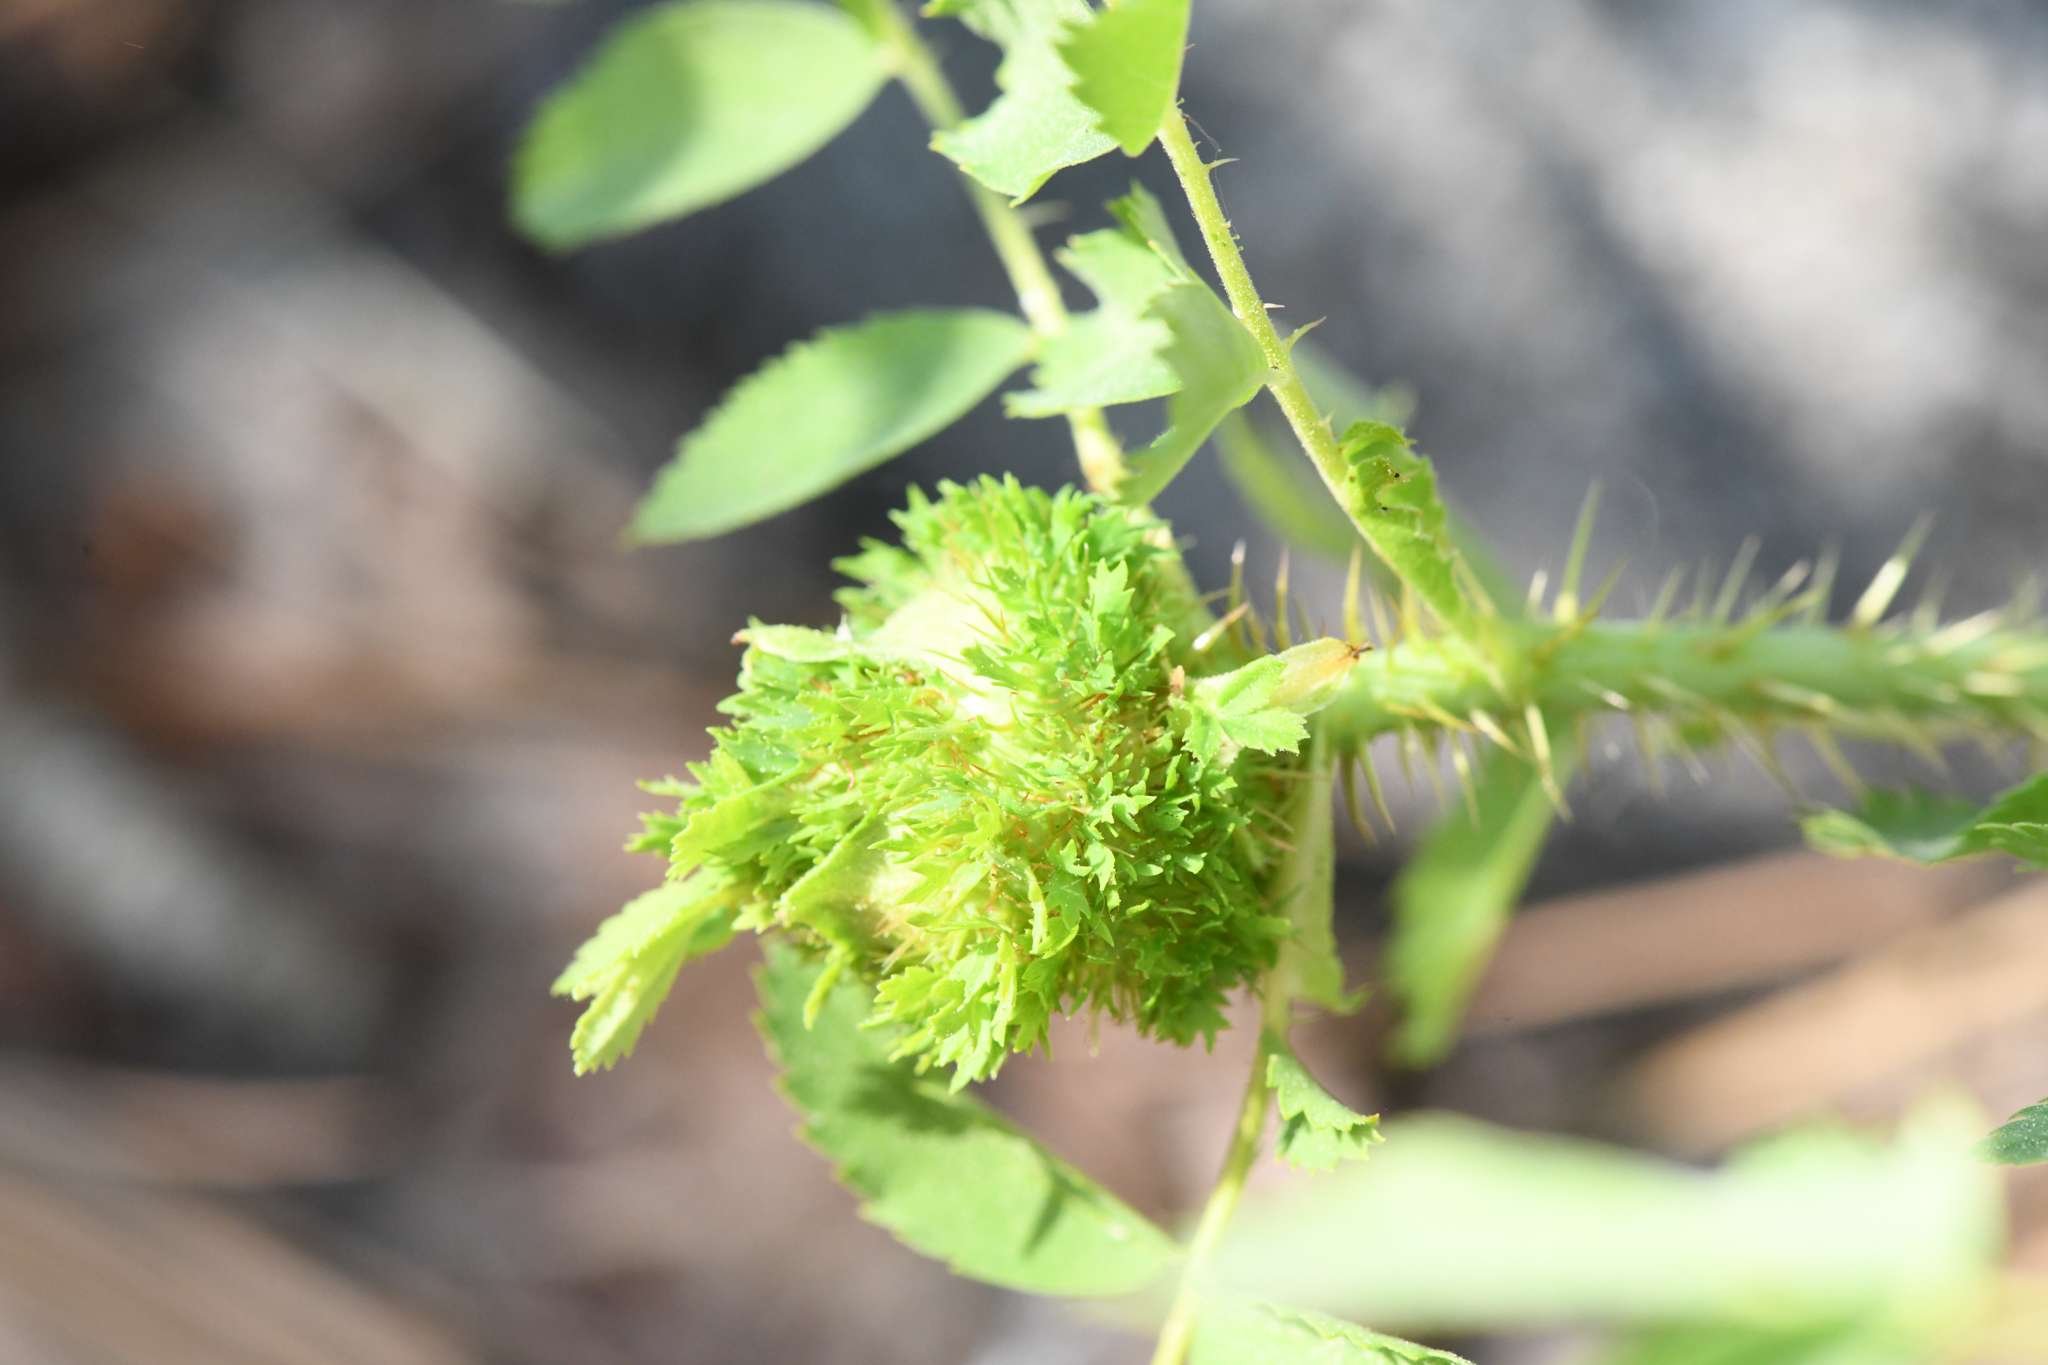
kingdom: Animalia
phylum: Arthropoda
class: Insecta
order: Hymenoptera
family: Cynipidae
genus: Diplolepis
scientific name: Diplolepis californica
